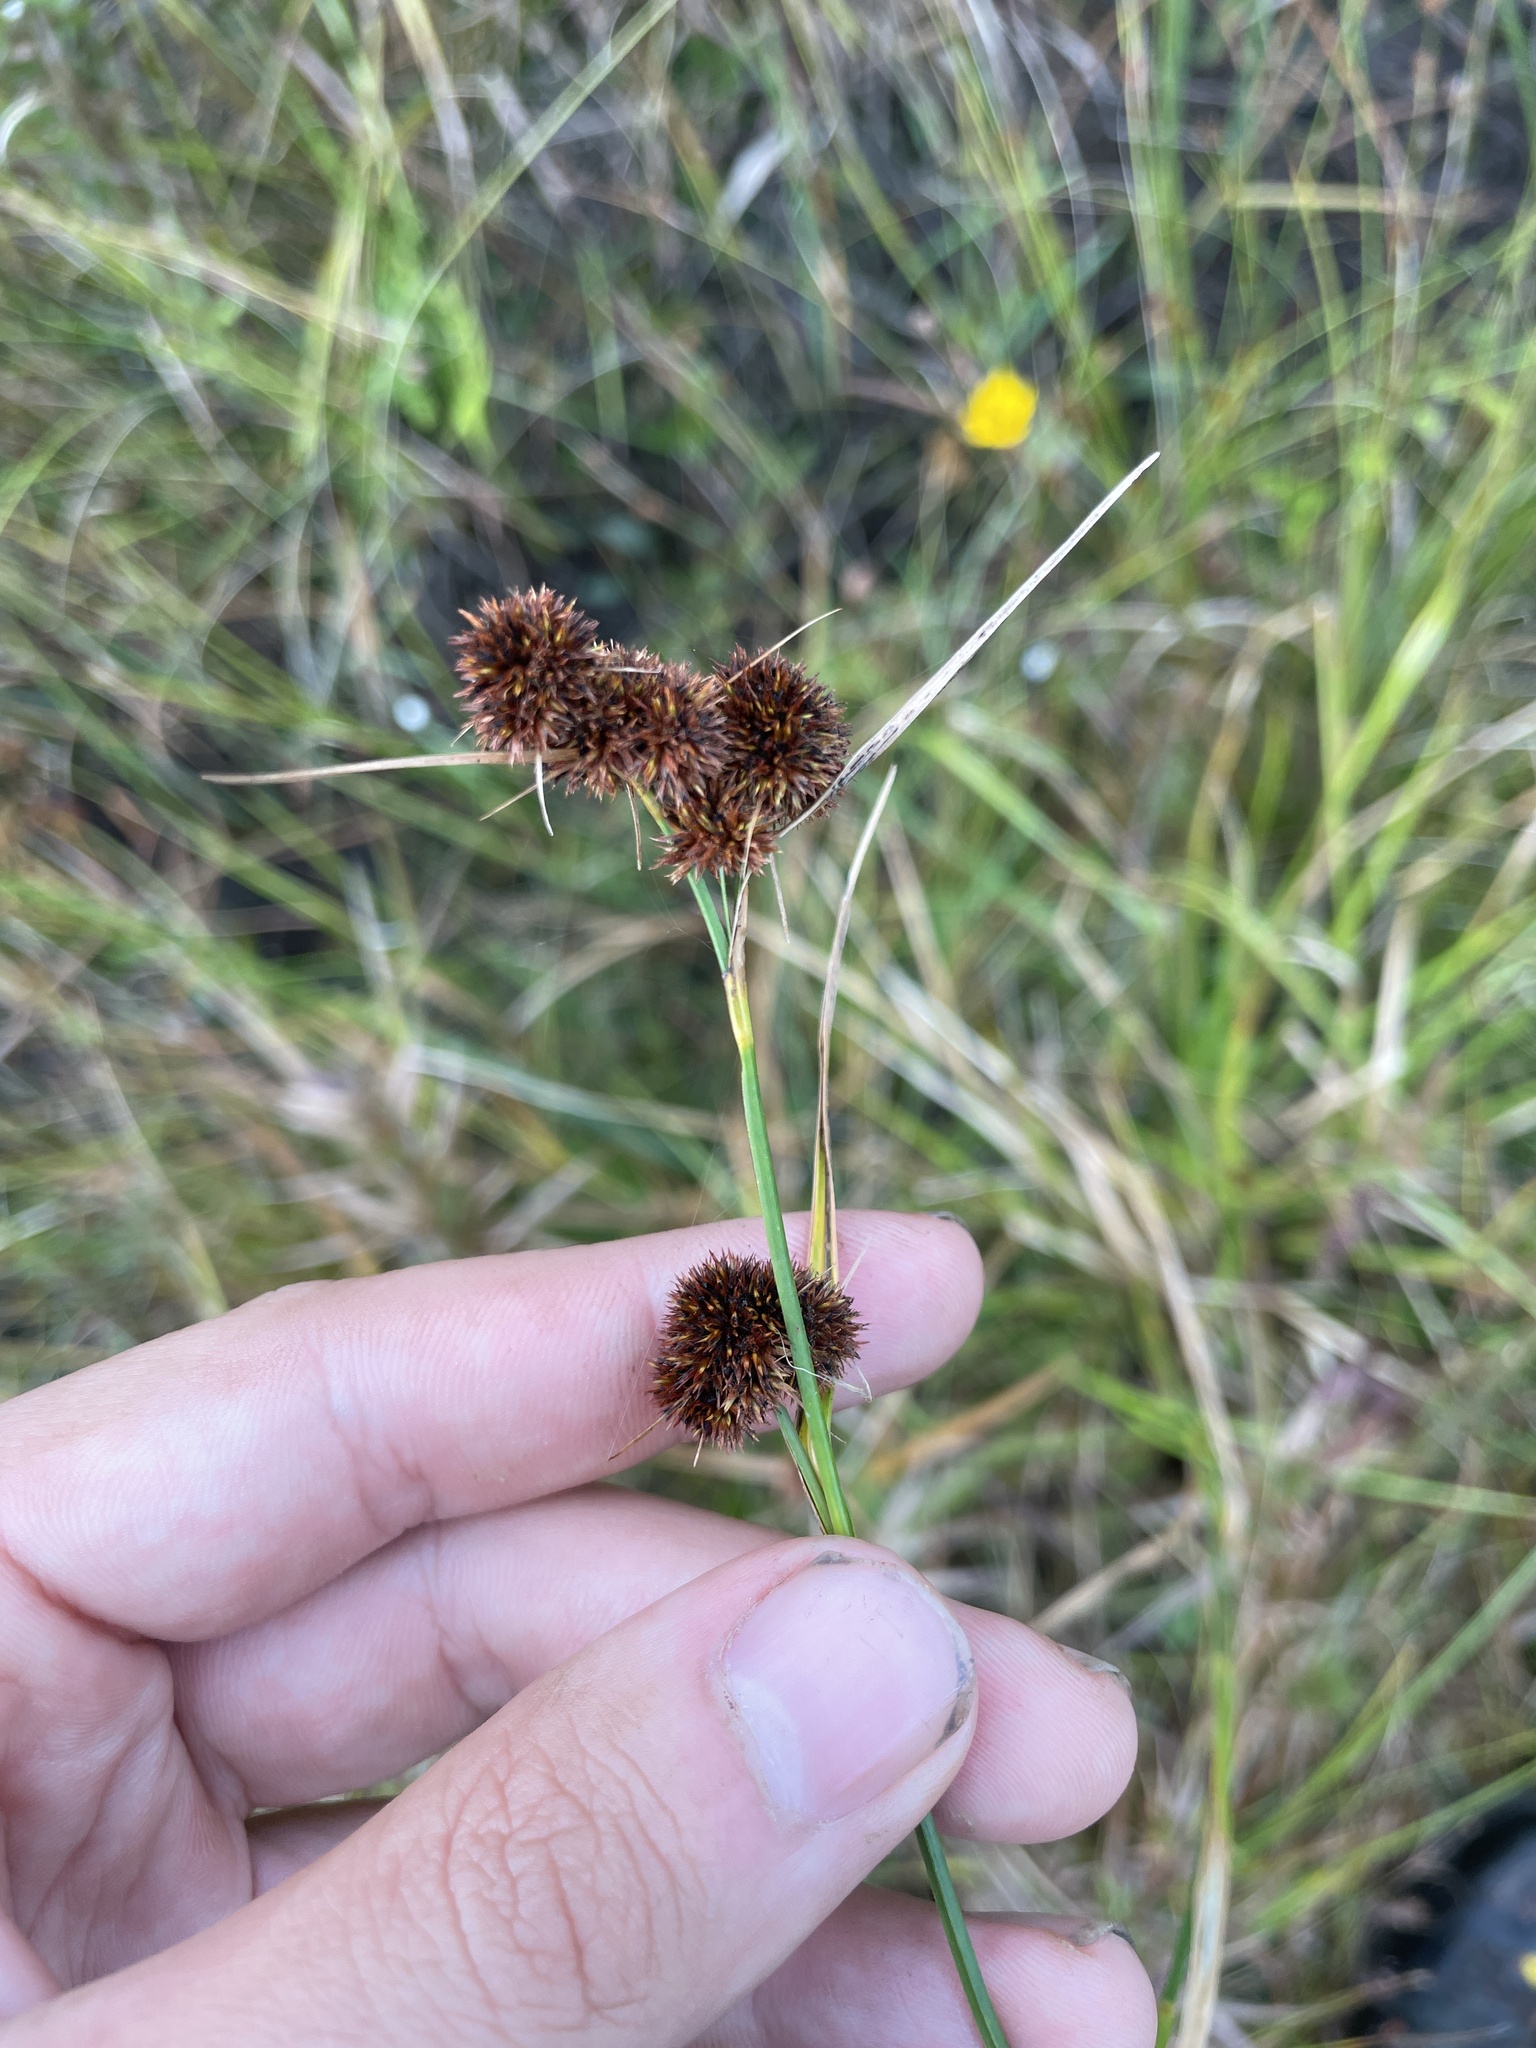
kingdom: Plantae
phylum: Tracheophyta
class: Liliopsida
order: Poales
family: Juncaceae
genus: Juncus
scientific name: Juncus megacephalus
